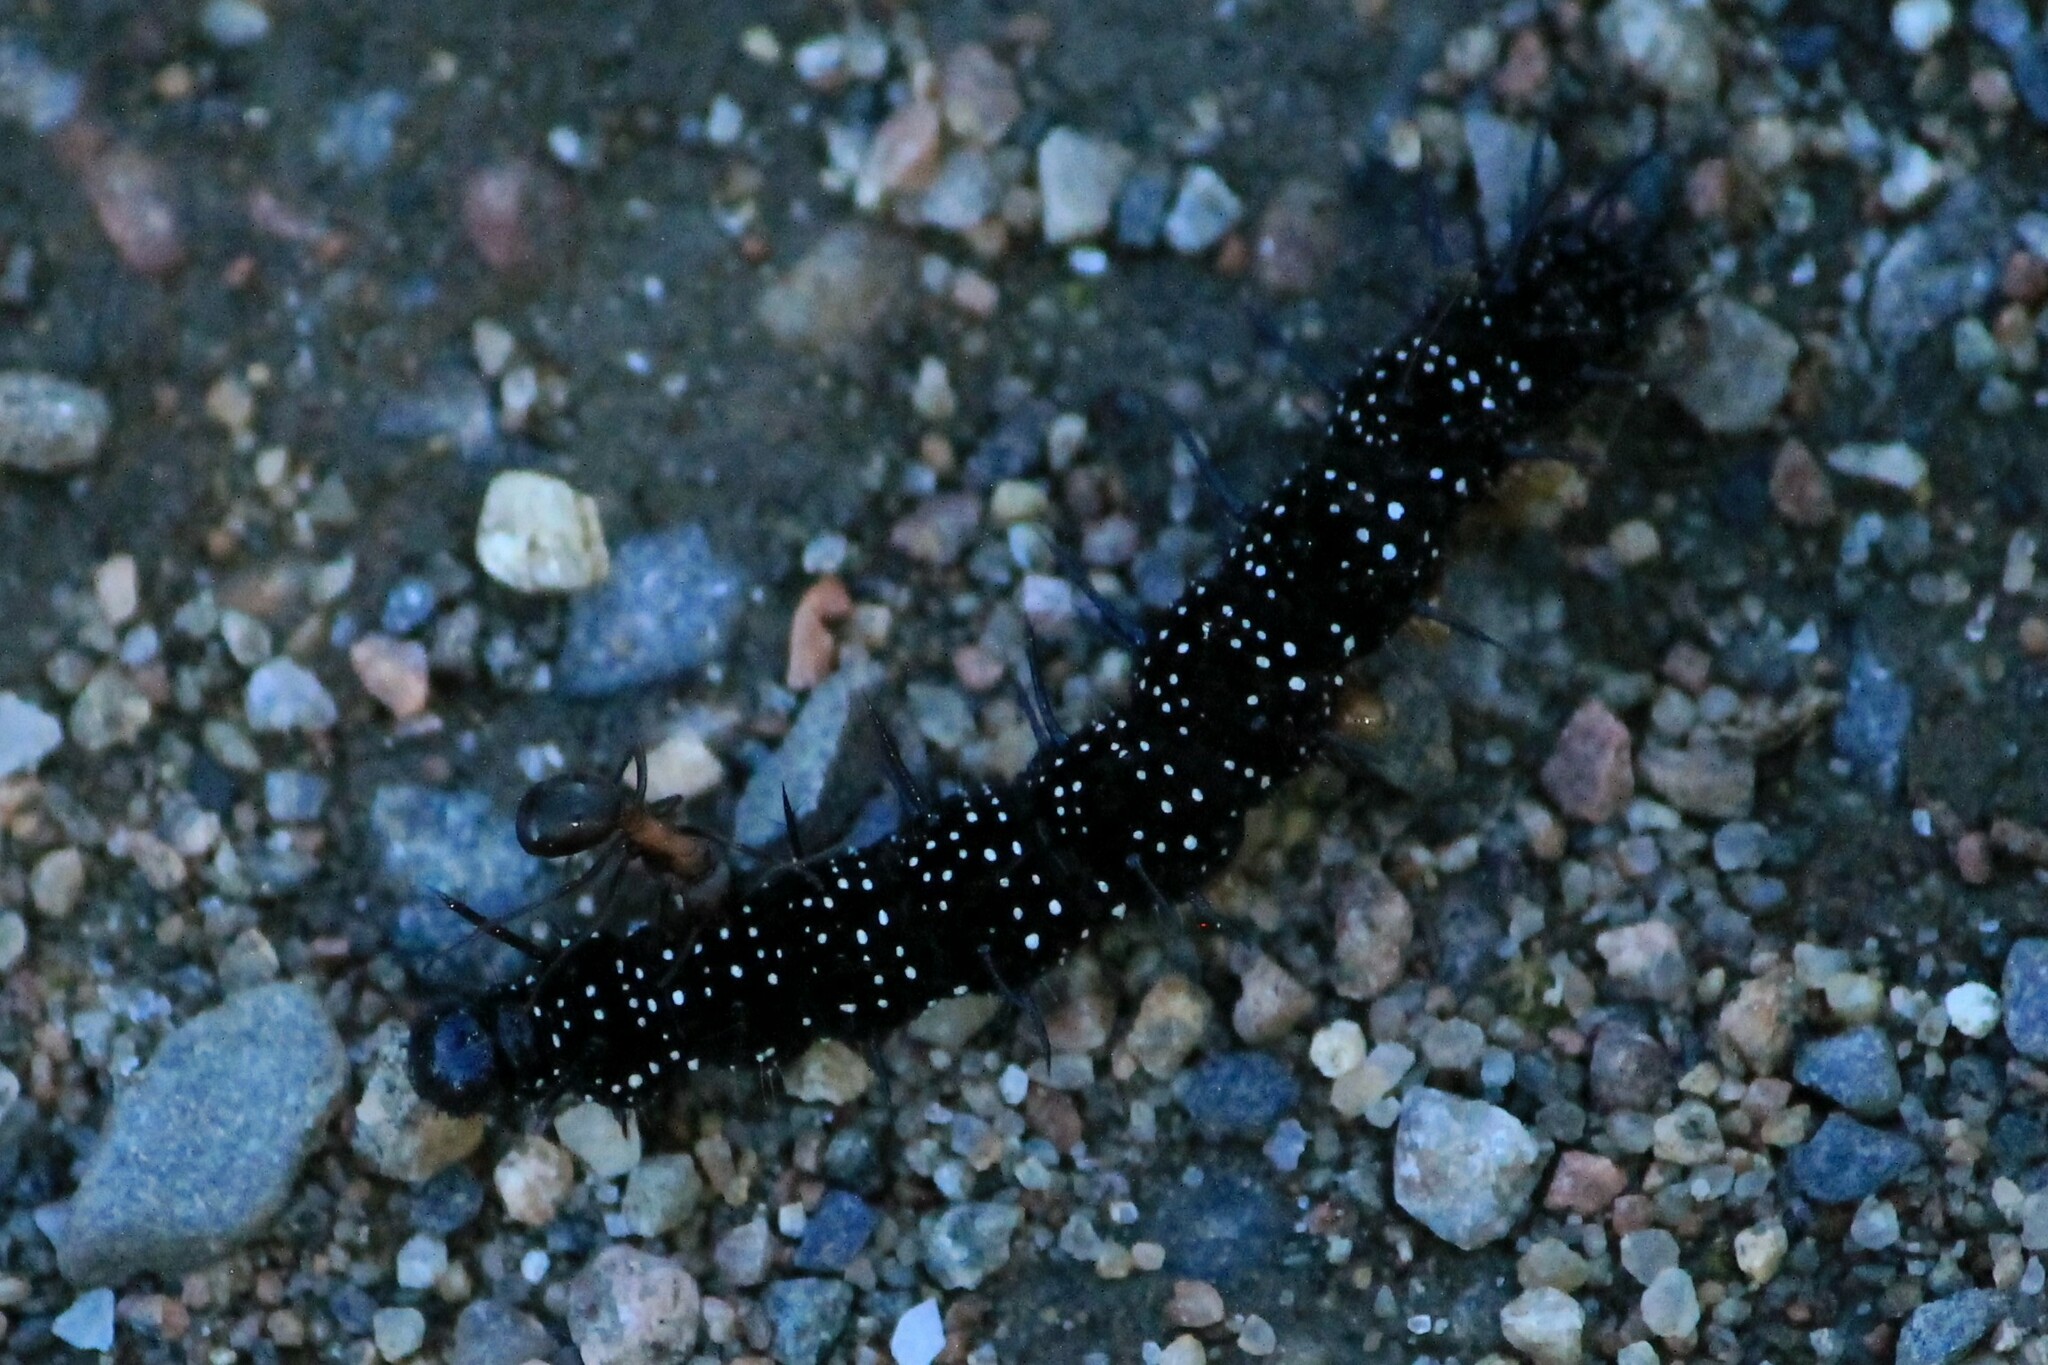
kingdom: Animalia
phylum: Arthropoda
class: Insecta
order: Lepidoptera
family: Nymphalidae
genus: Aglais
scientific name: Aglais io
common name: Peacock
